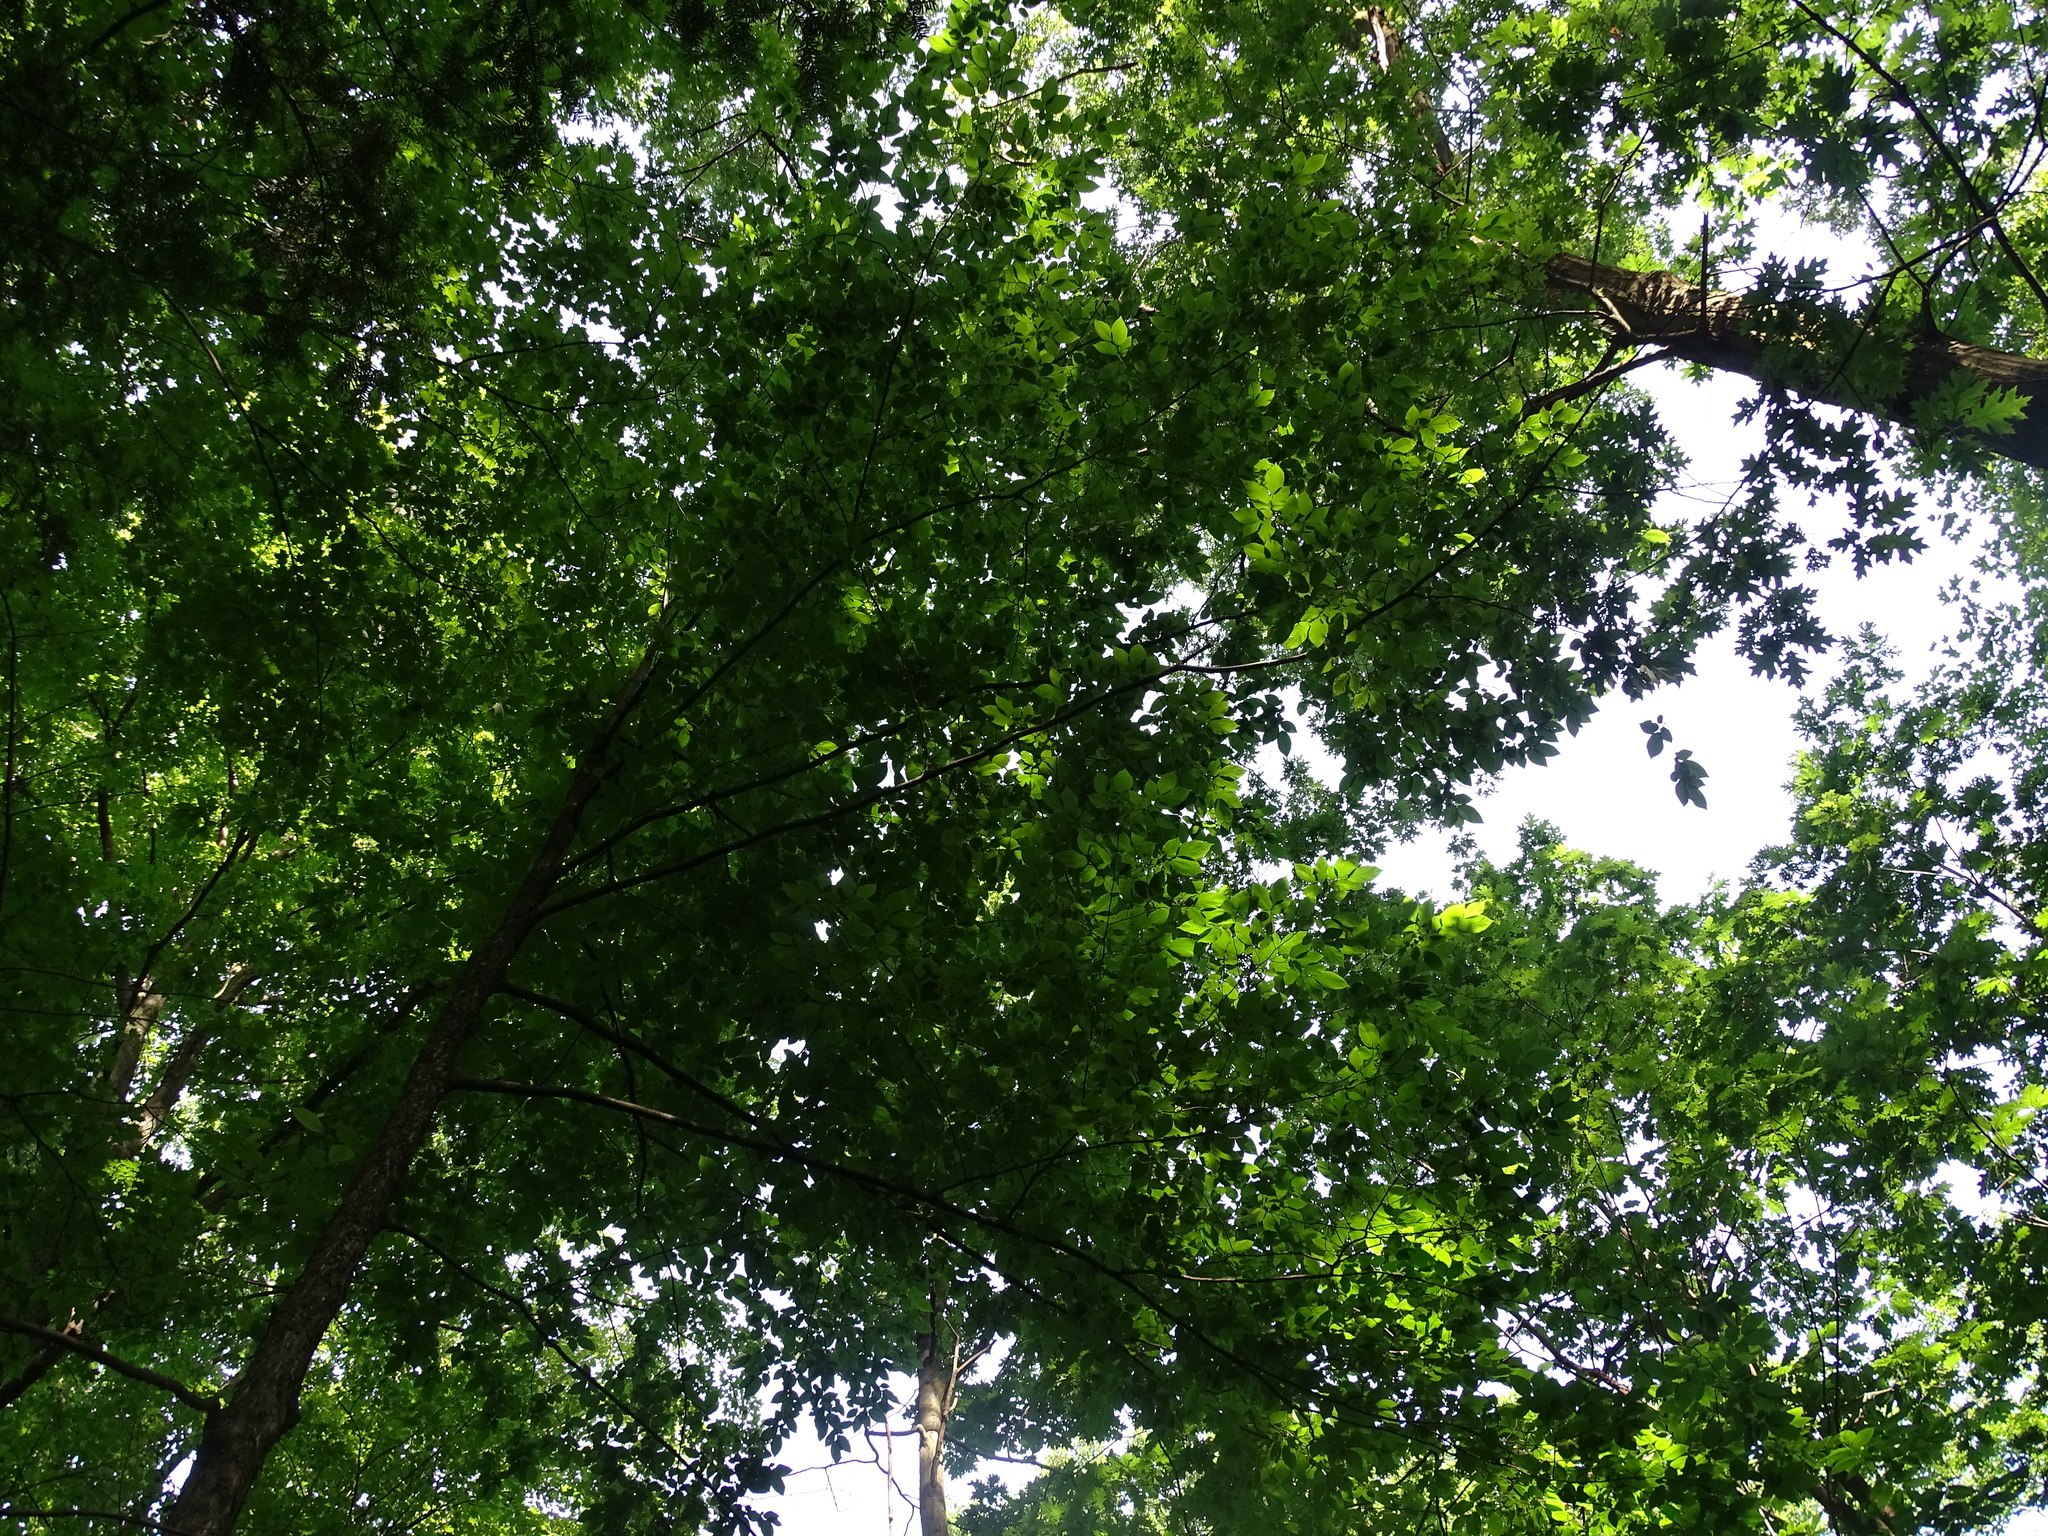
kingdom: Plantae
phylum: Tracheophyta
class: Magnoliopsida
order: Fagales
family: Betulaceae
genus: Ostrya
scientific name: Ostrya virginiana
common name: Ironwood
